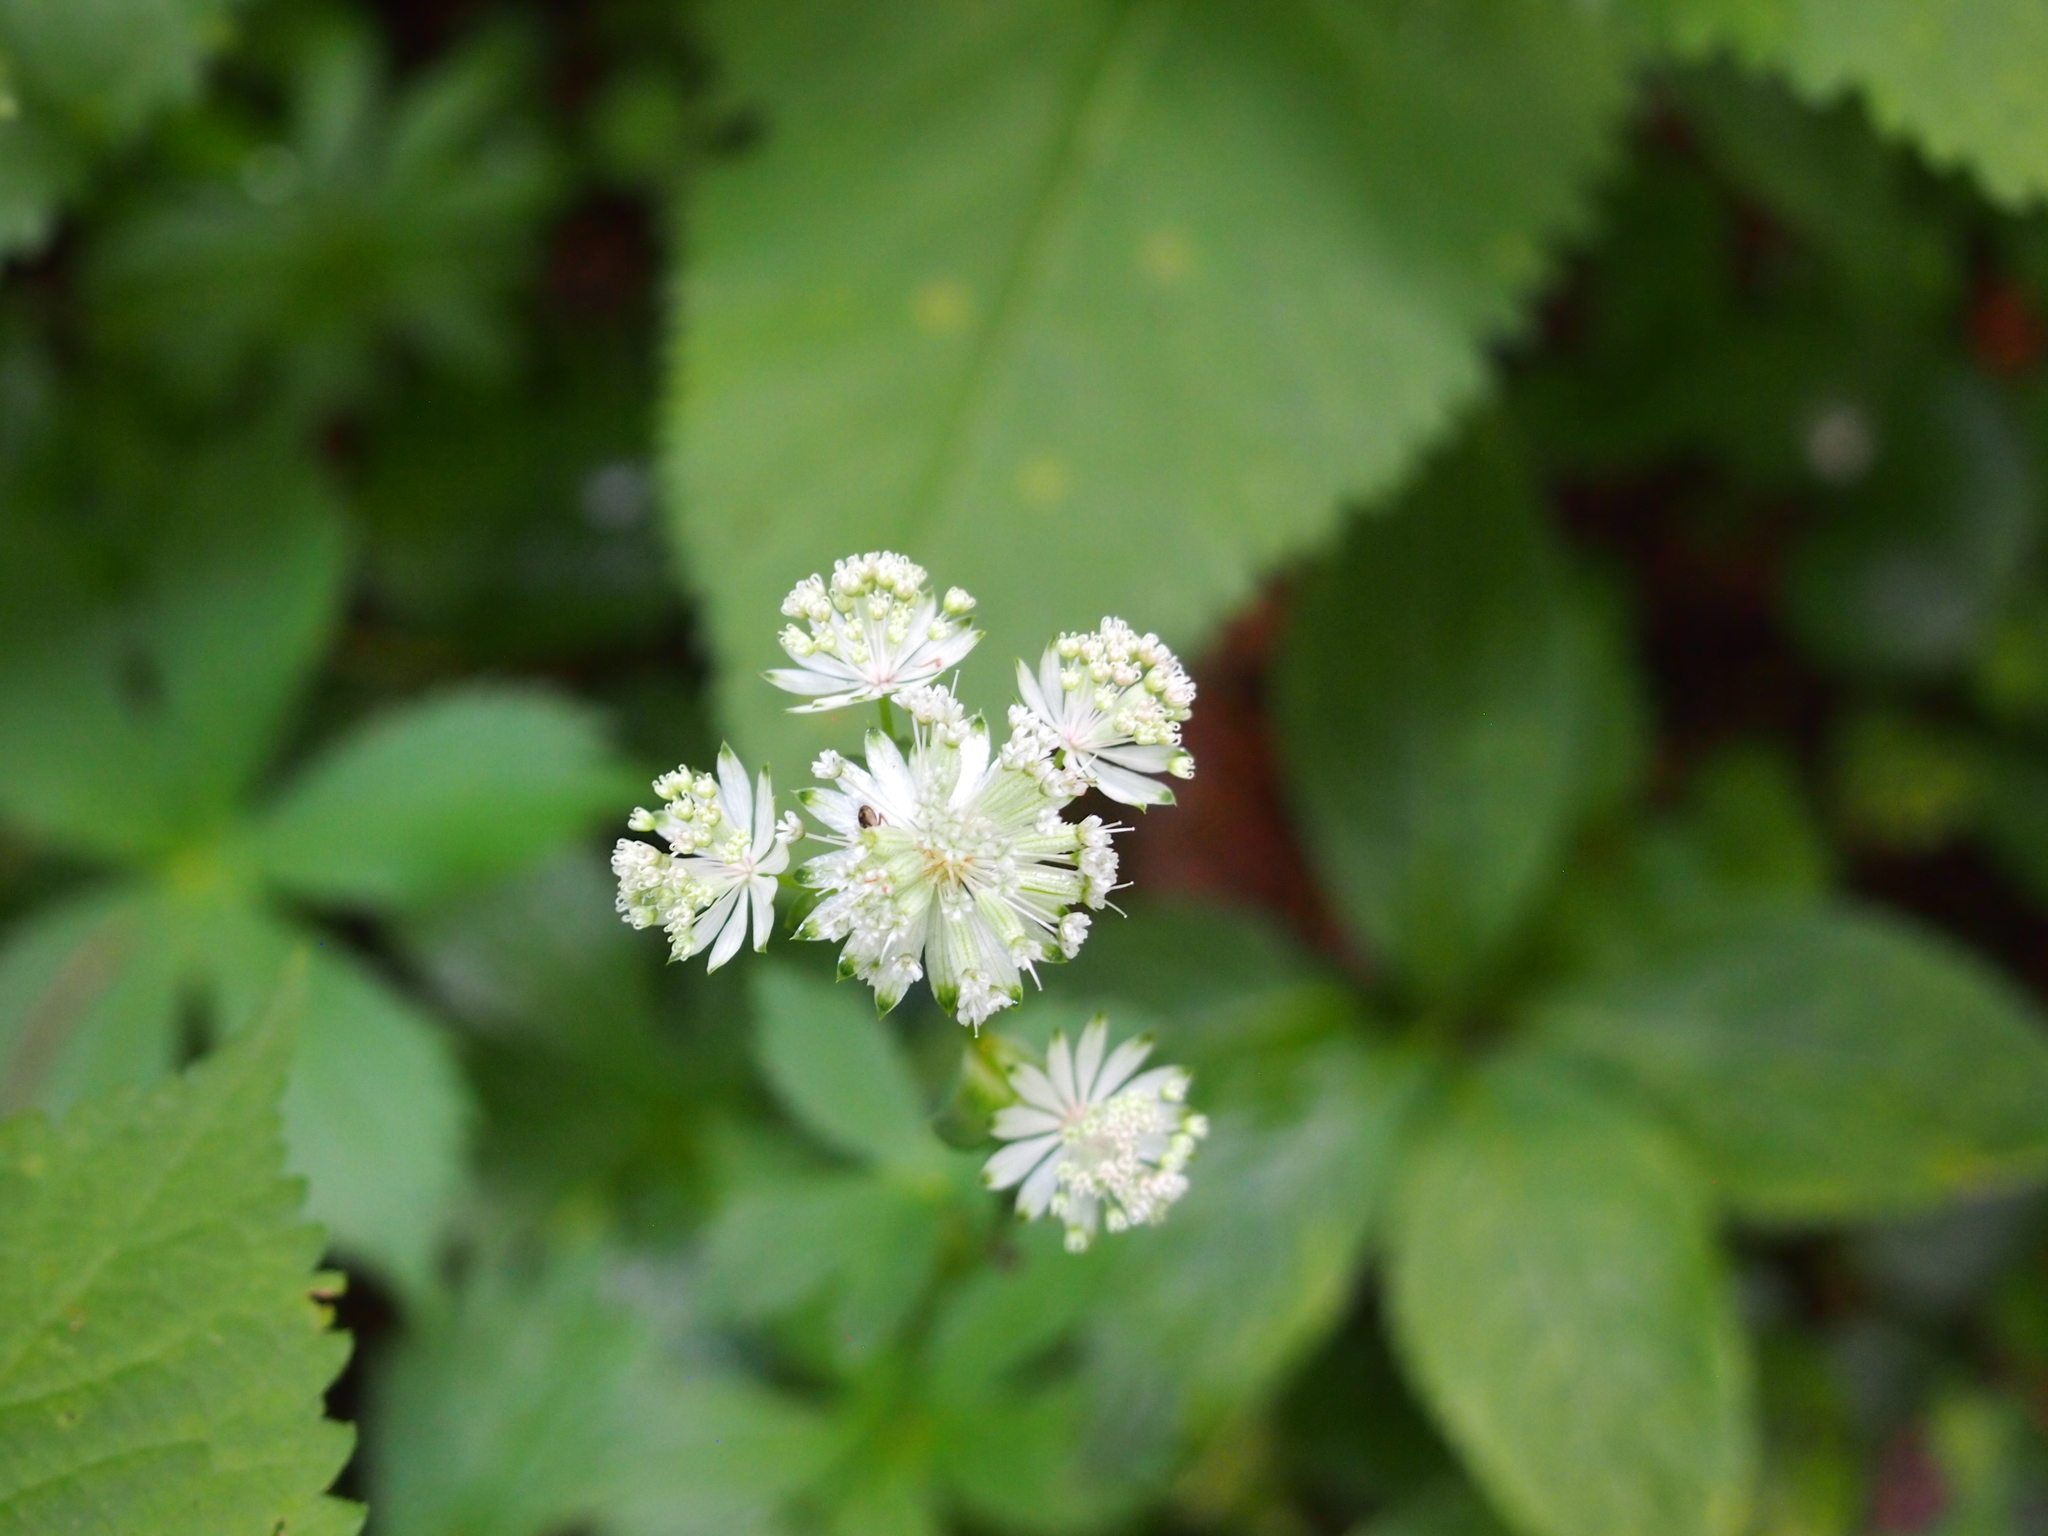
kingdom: Plantae
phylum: Tracheophyta
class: Magnoliopsida
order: Apiales
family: Apiaceae
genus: Astrantia
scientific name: Astrantia major
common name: Greater masterwort
